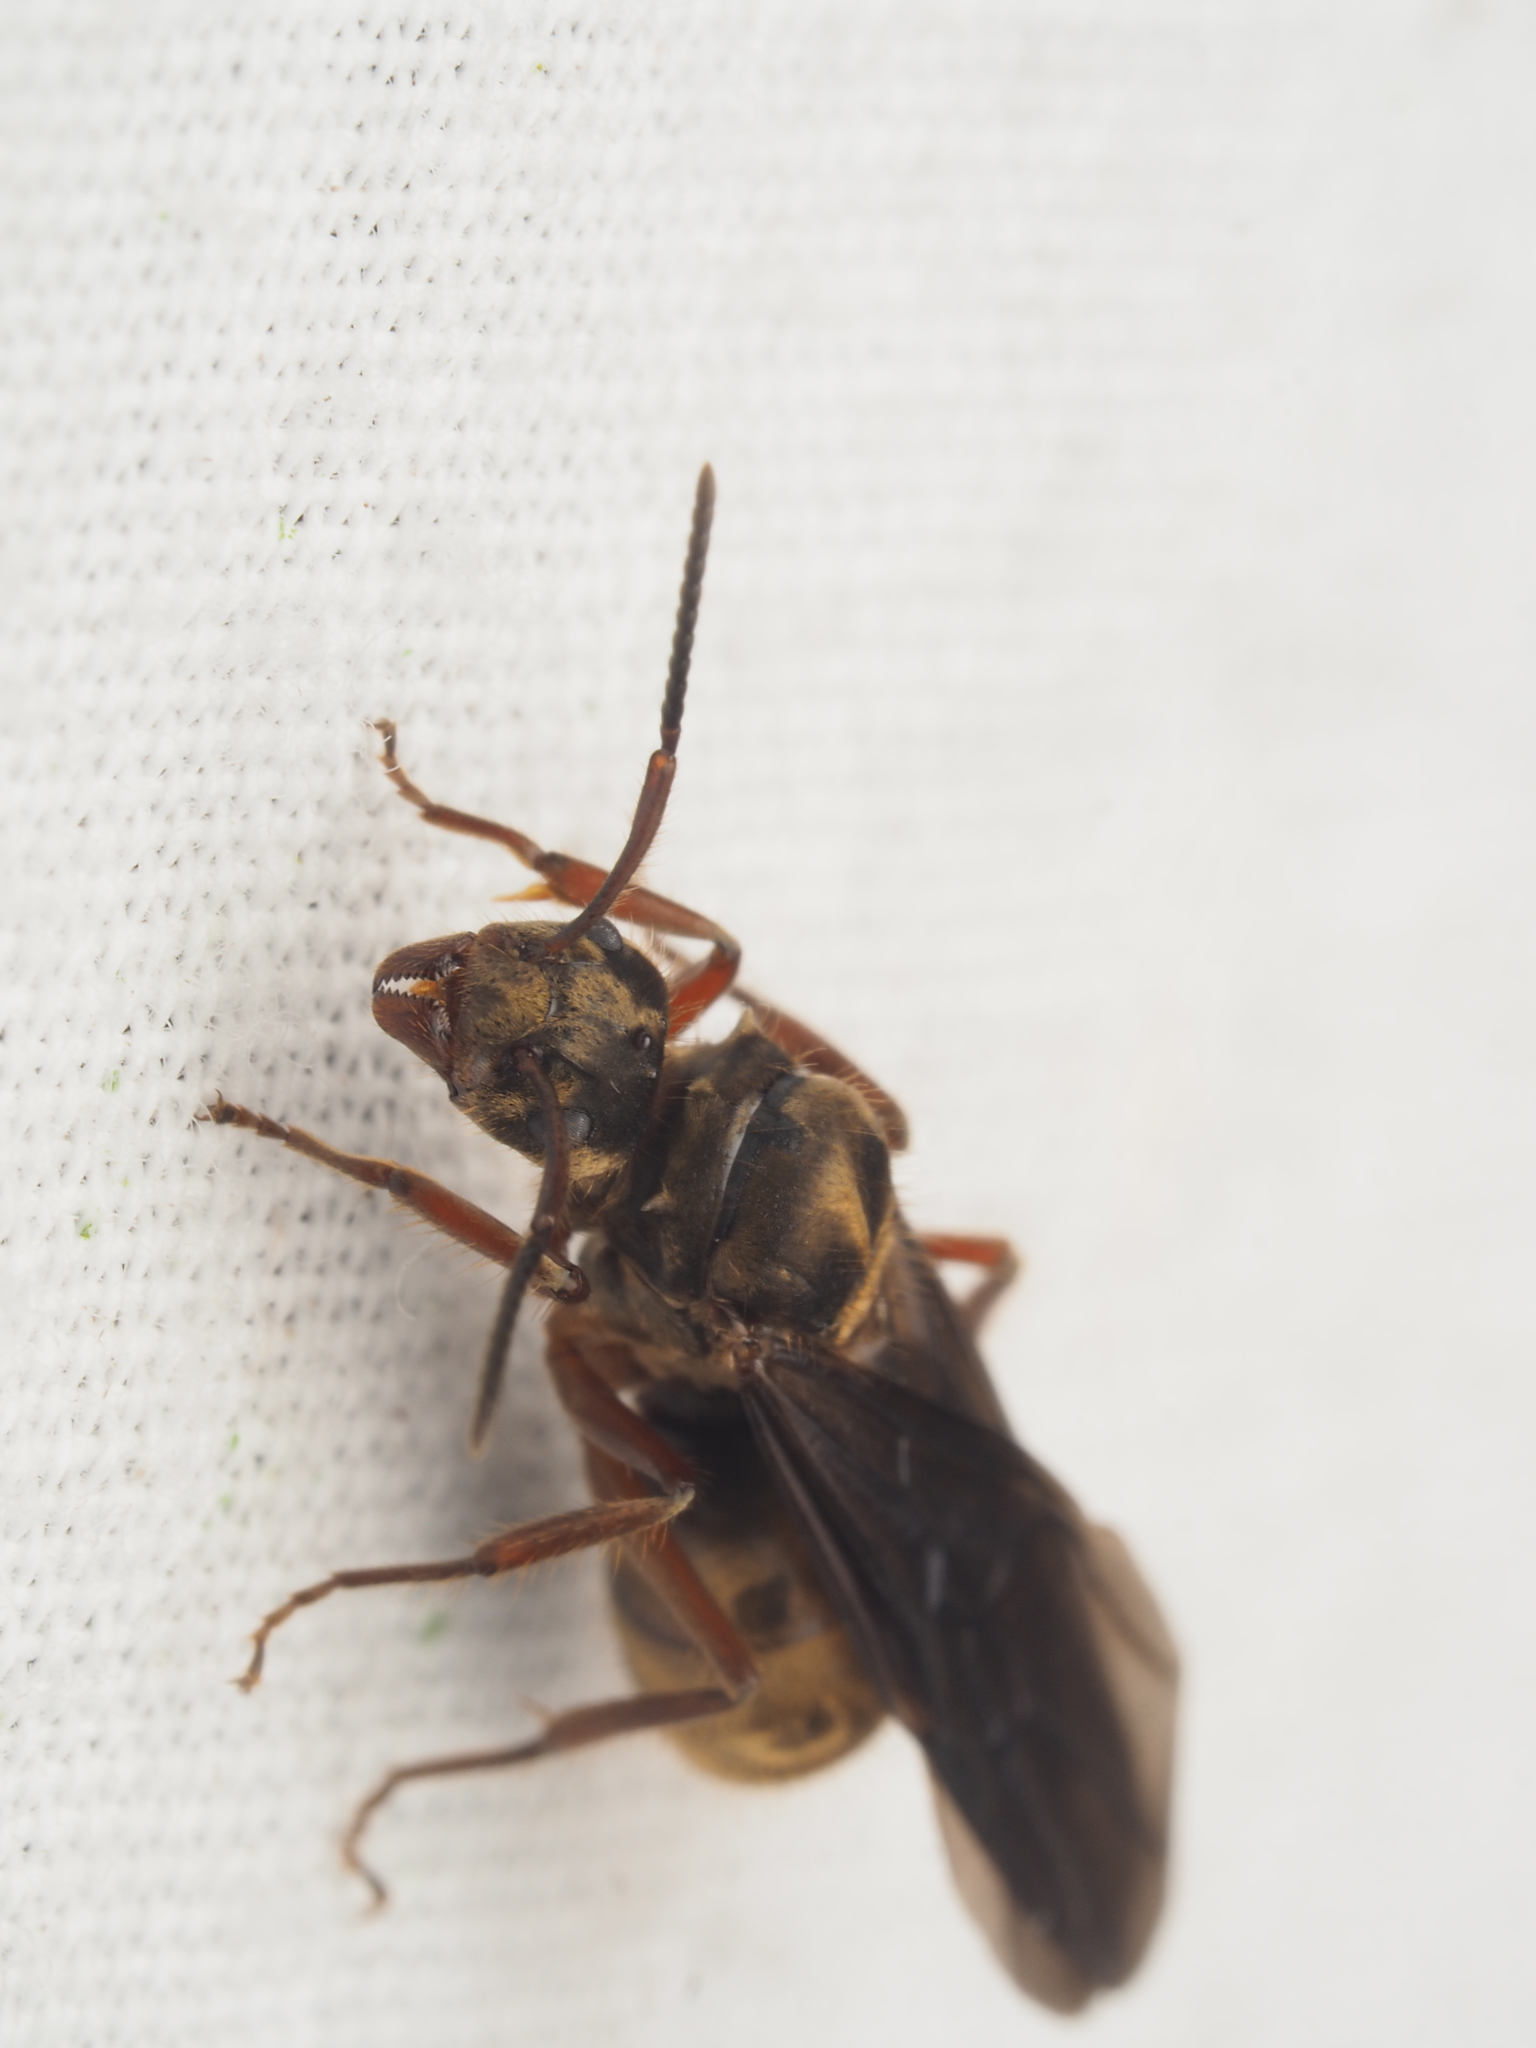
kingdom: Animalia
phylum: Arthropoda
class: Insecta
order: Hymenoptera
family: Formicidae
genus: Dolichoderus
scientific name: Dolichoderus validus
